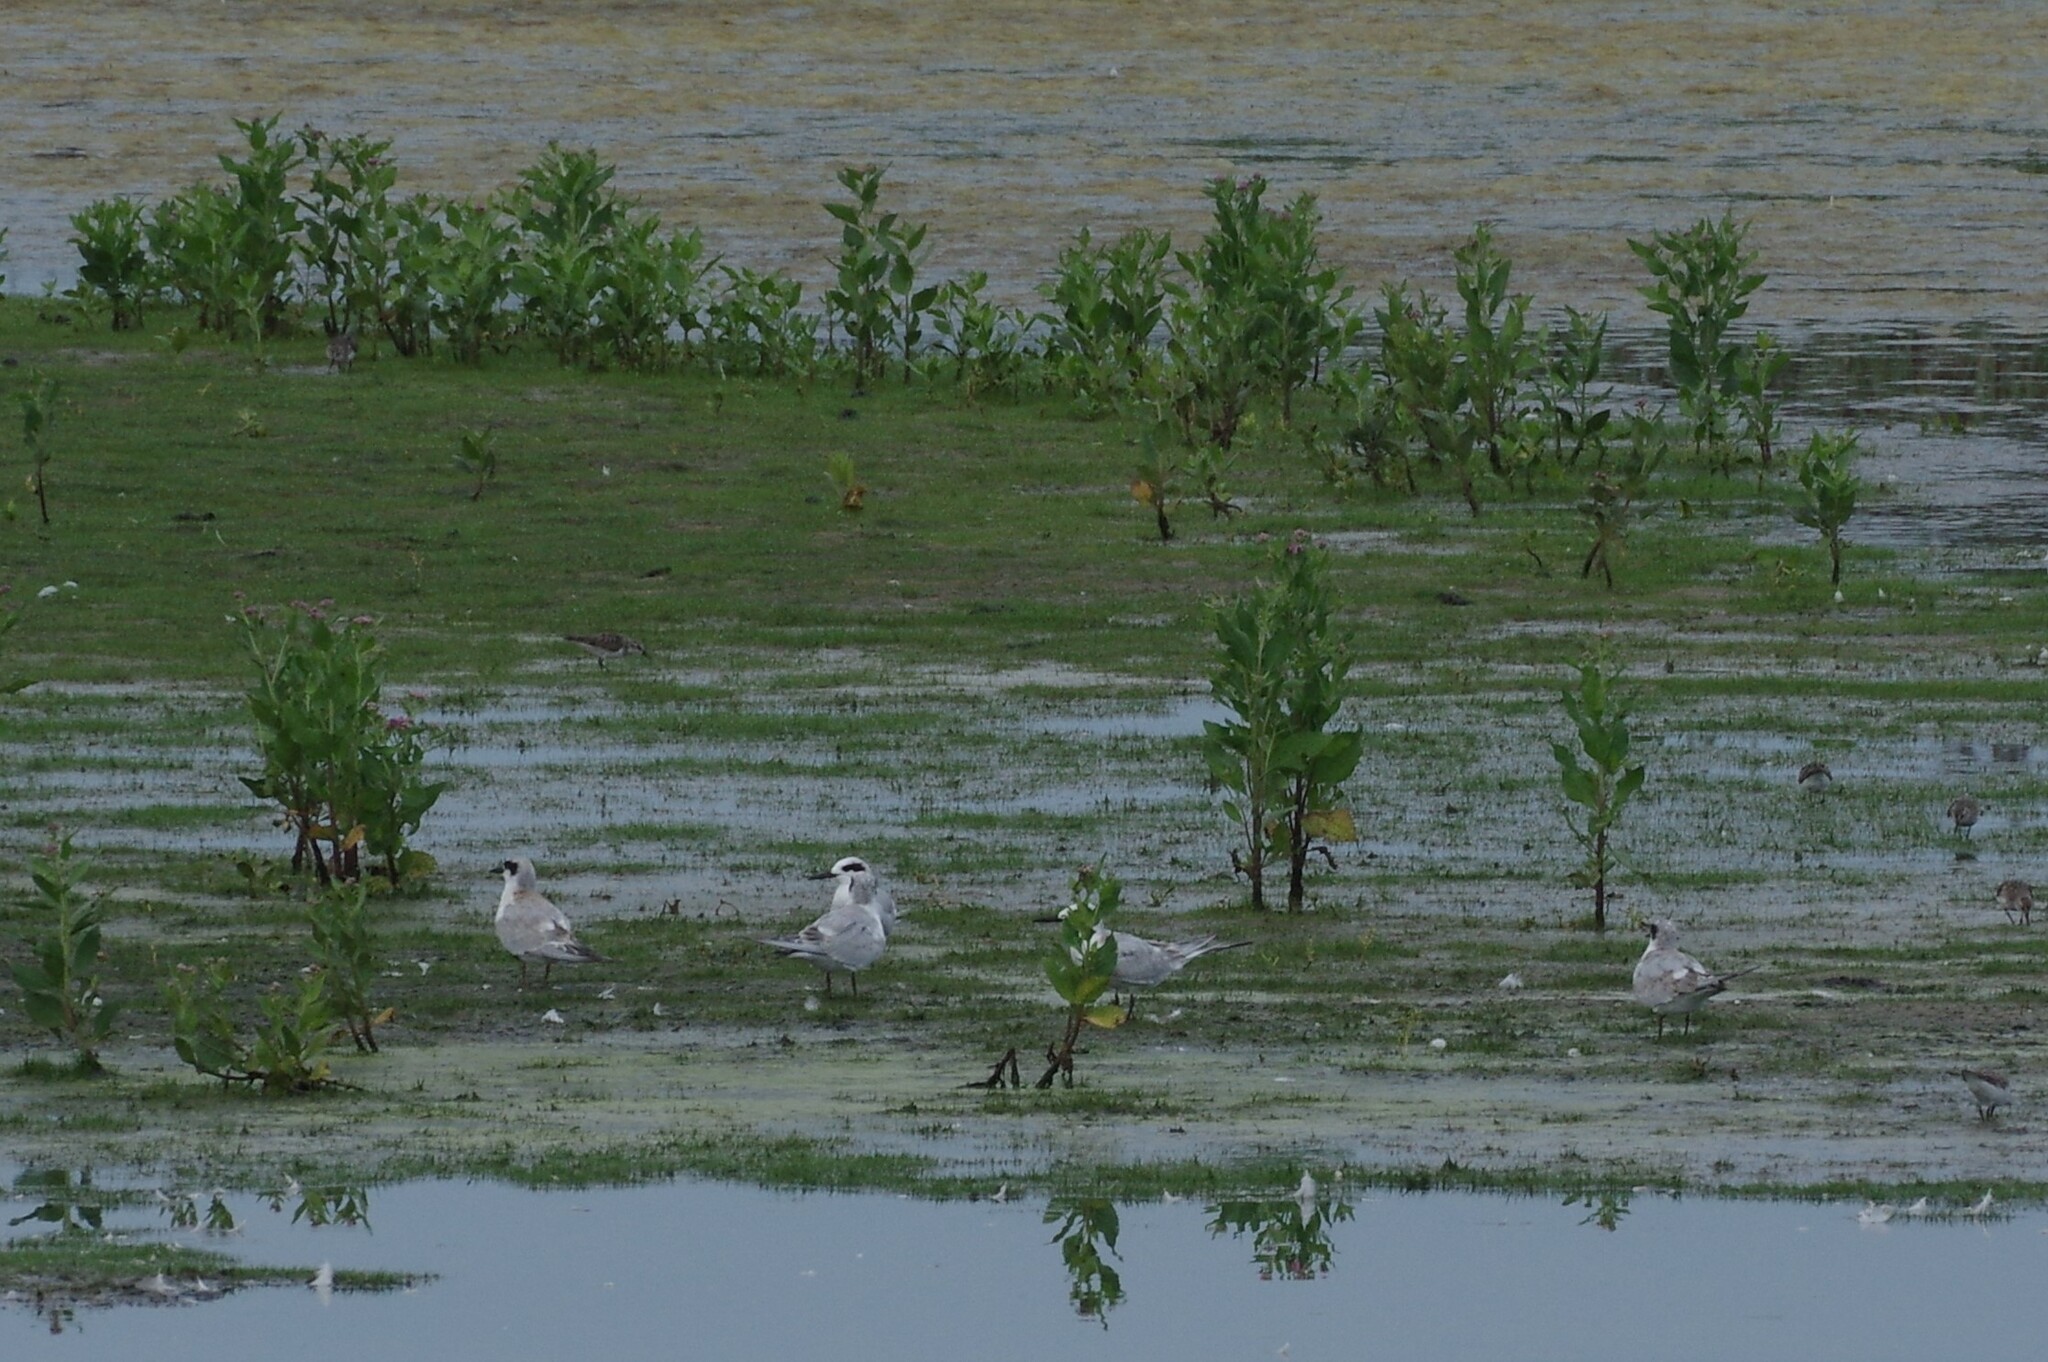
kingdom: Animalia
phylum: Chordata
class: Aves
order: Charadriiformes
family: Laridae
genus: Sterna
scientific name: Sterna forsteri
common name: Forster's tern
